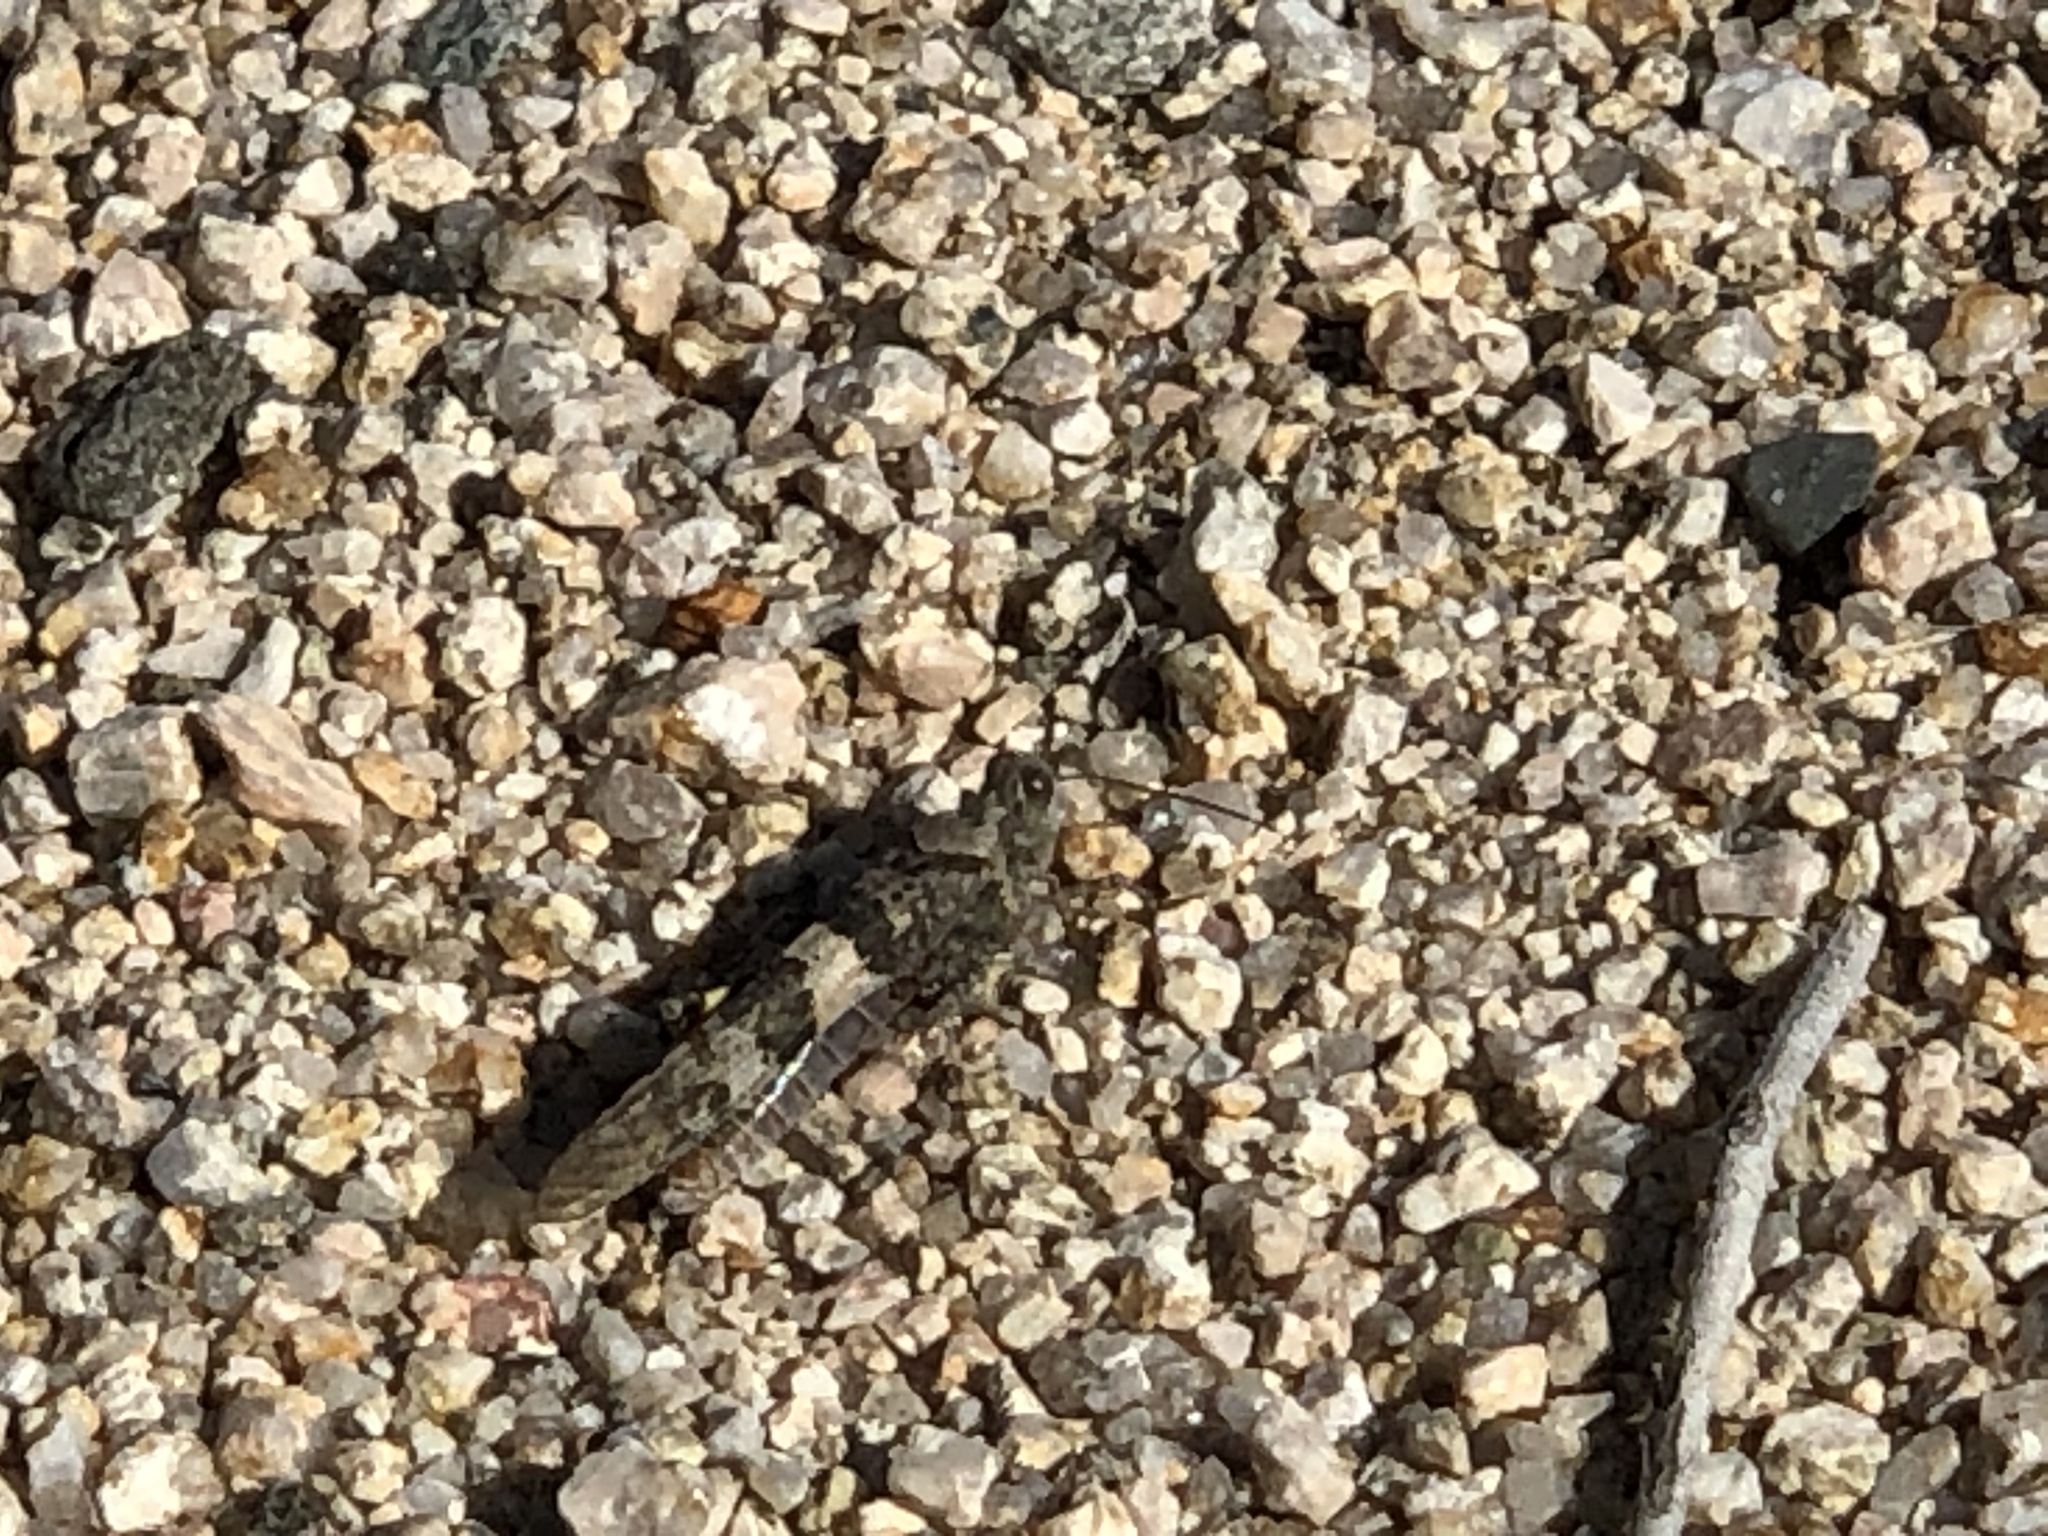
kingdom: Animalia
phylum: Arthropoda
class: Insecta
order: Orthoptera
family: Acrididae
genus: Trimerotropis
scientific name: Trimerotropis pallidipennis
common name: Pallid-winged grasshopper
